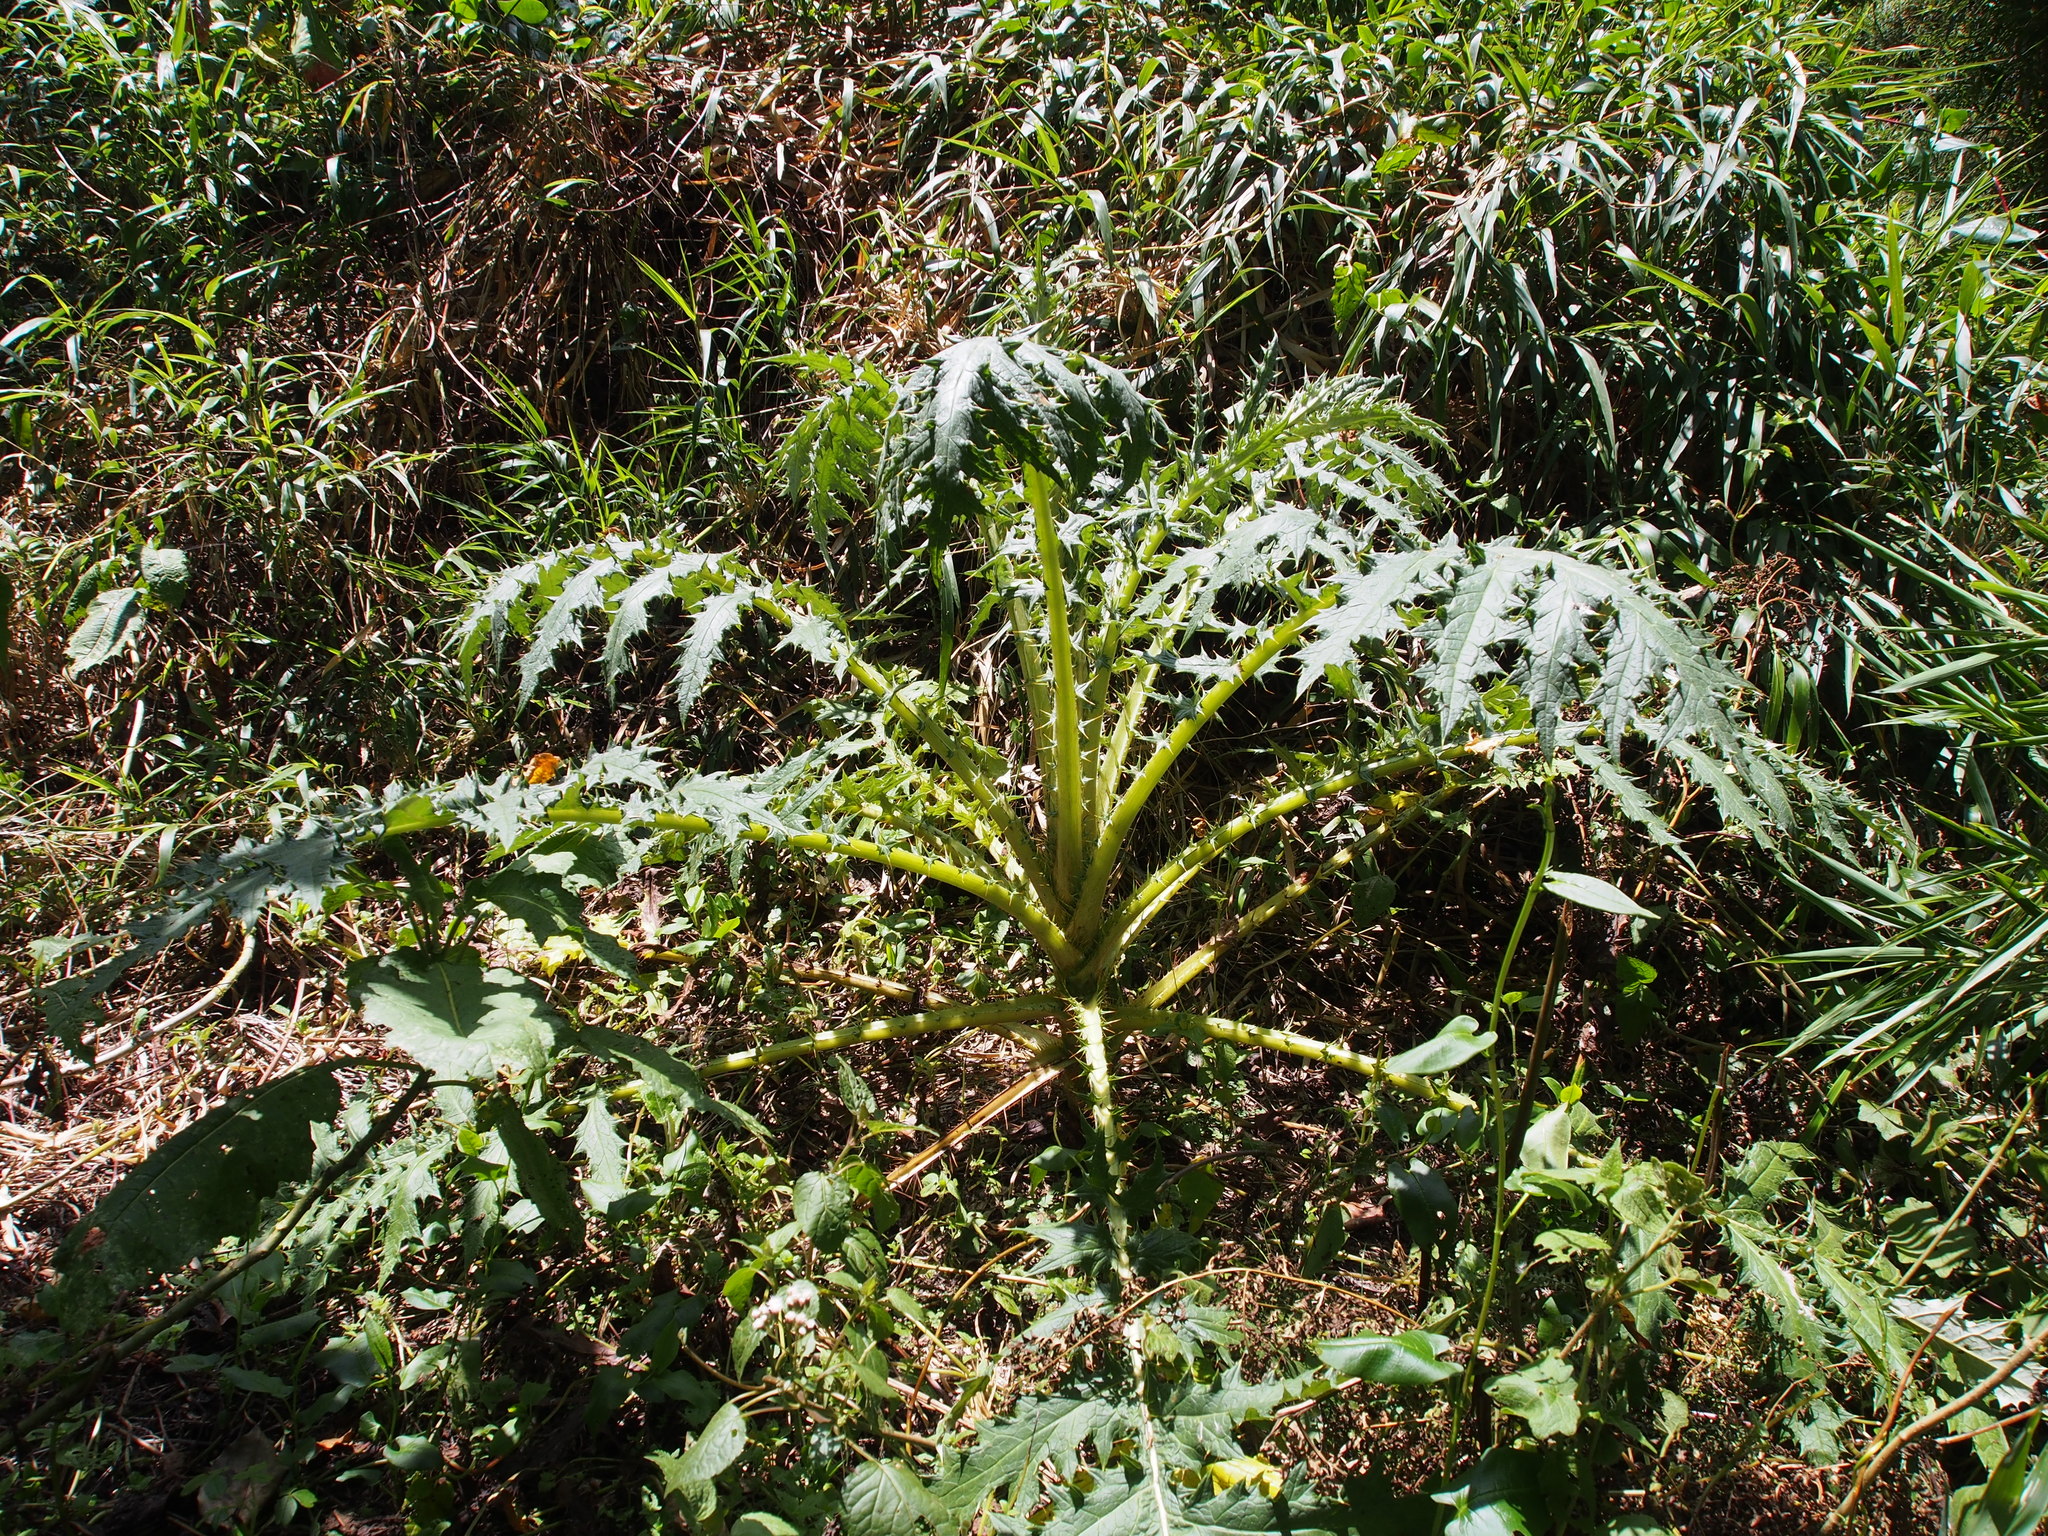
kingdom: Plantae
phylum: Tracheophyta
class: Magnoliopsida
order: Asterales
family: Asteraceae
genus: Cirsium
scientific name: Cirsium subcoriaceum
